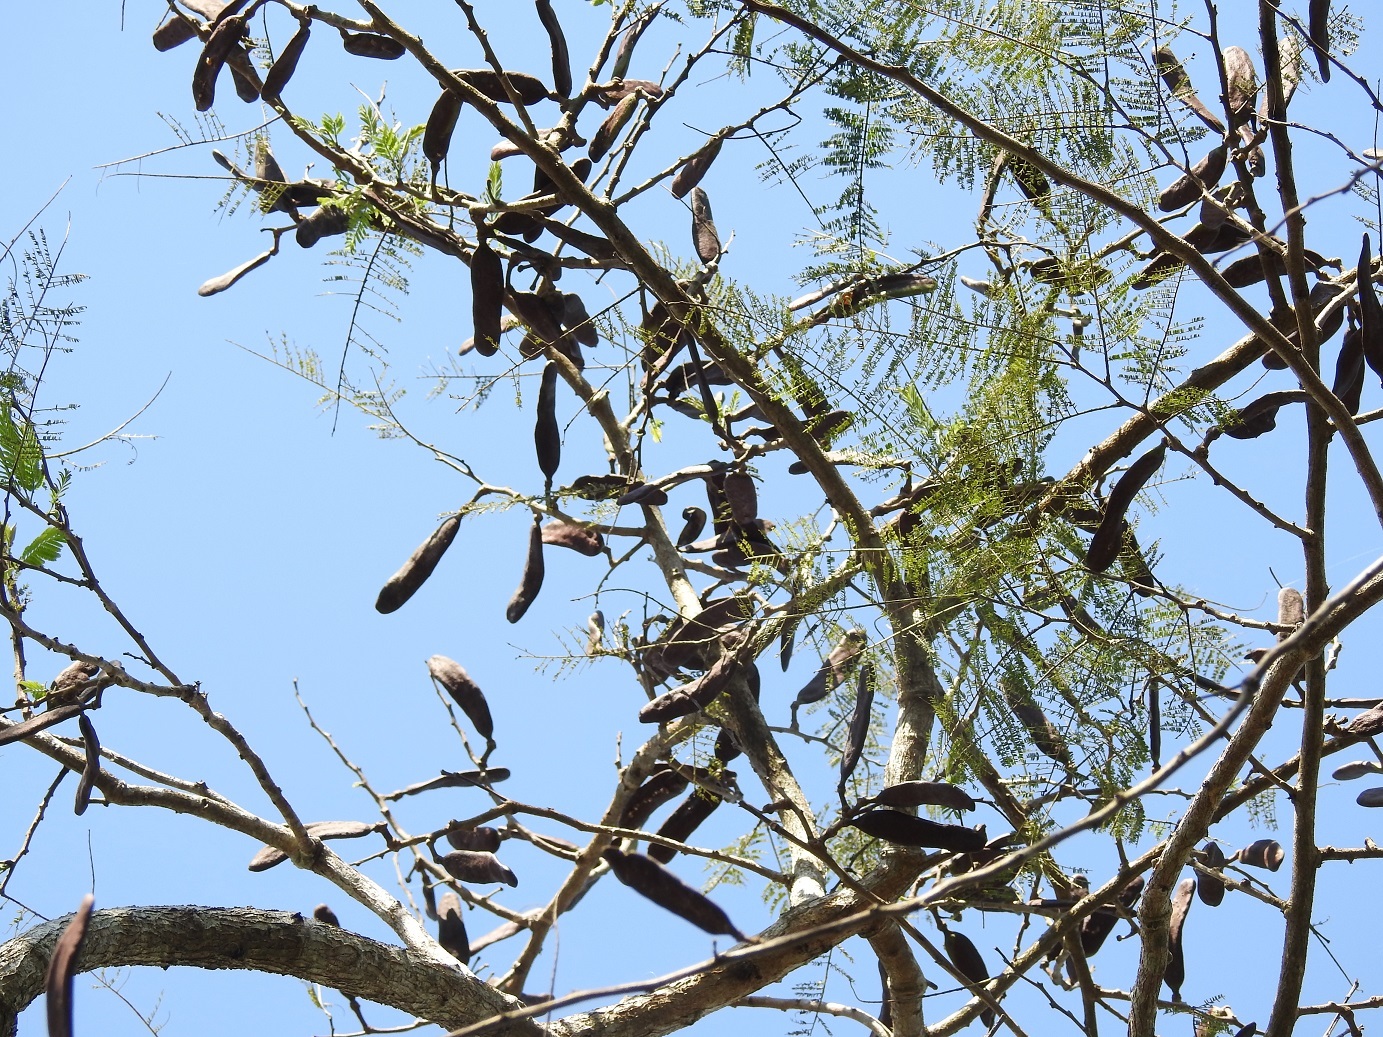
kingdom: Plantae
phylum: Tracheophyta
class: Magnoliopsida
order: Fabales
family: Fabaceae
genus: Vachellia
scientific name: Vachellia pennatula
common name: Fern-leaf acacia
